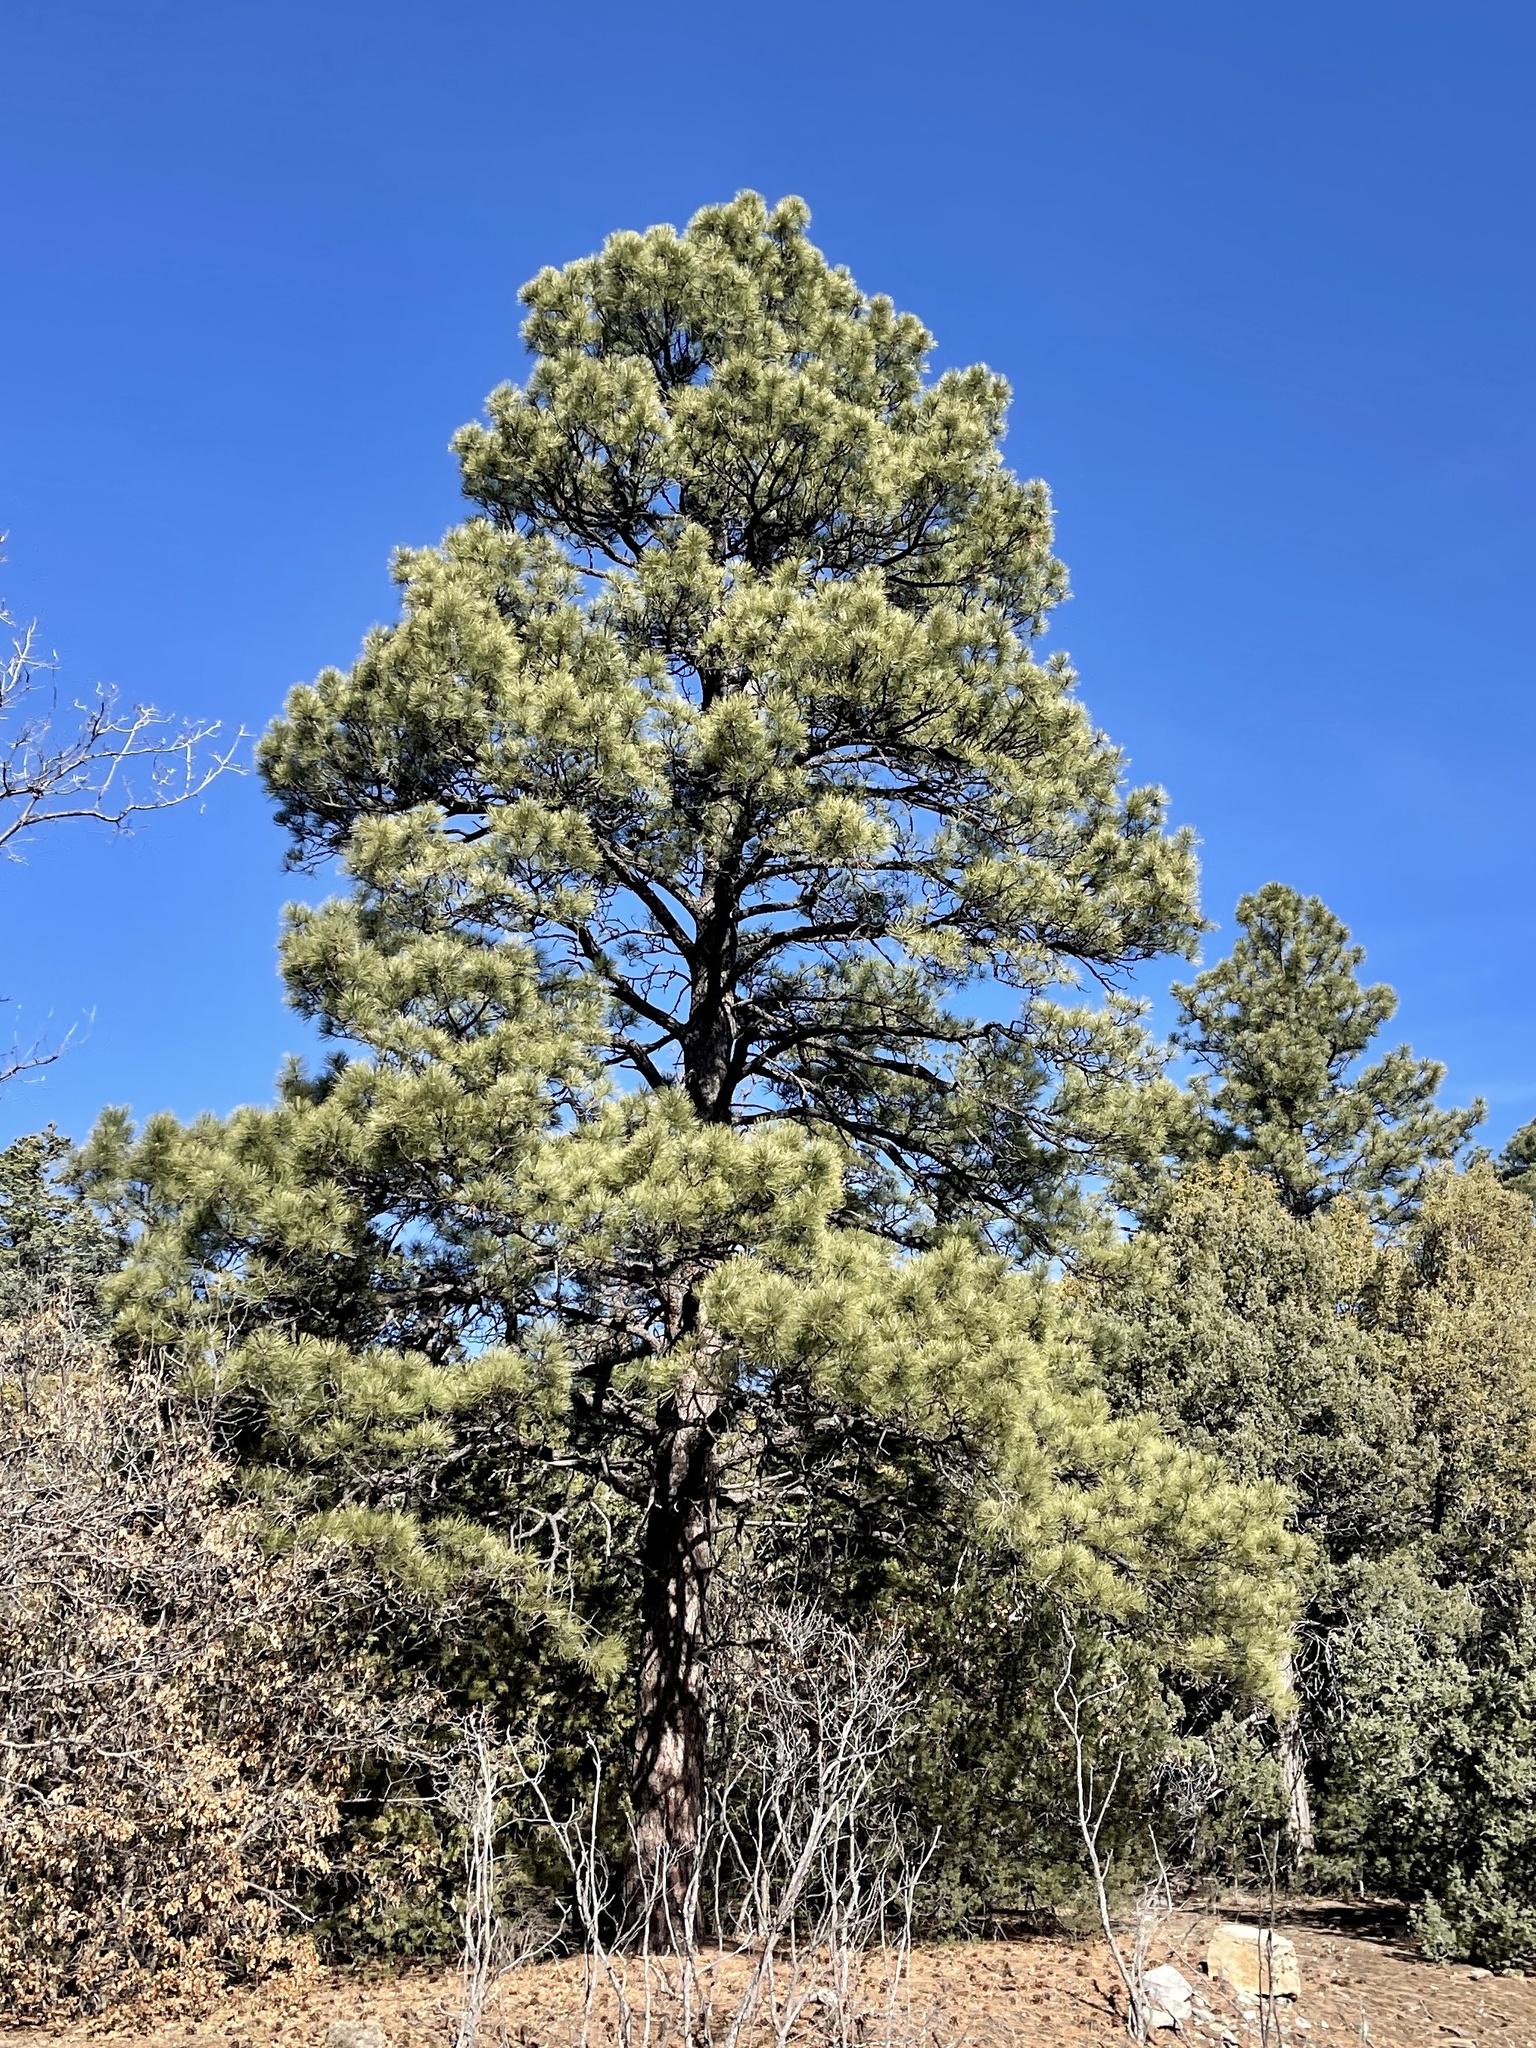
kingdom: Plantae
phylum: Tracheophyta
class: Pinopsida
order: Pinales
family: Pinaceae
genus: Pinus
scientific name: Pinus ponderosa
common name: Western yellow-pine
